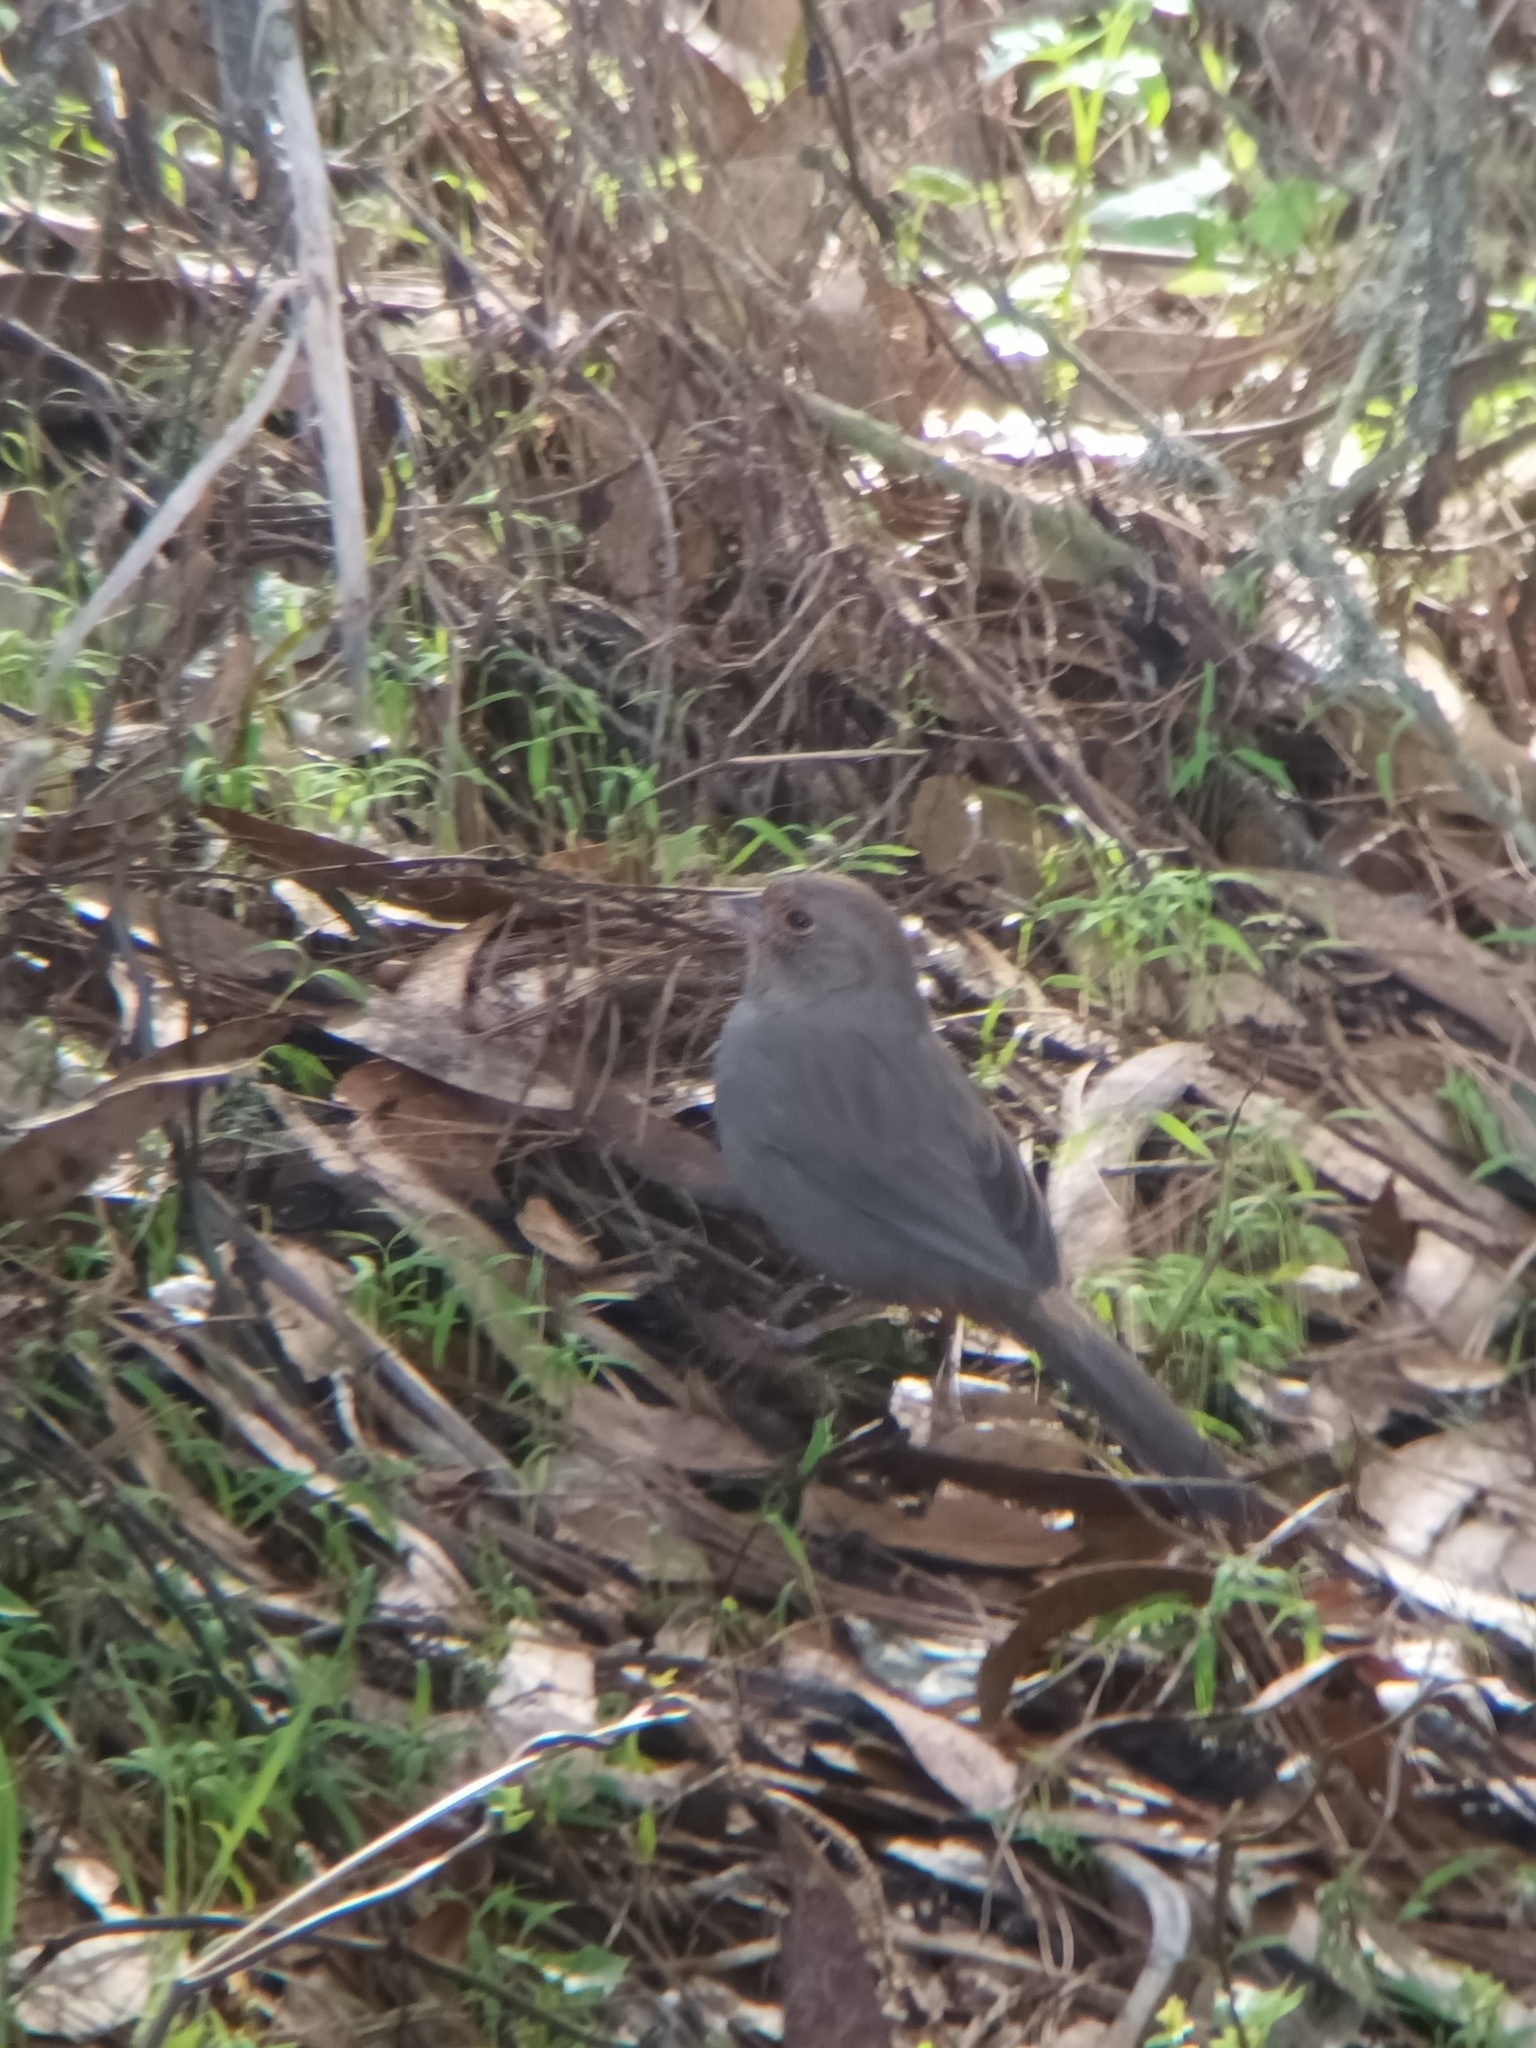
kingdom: Animalia
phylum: Chordata
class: Aves
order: Passeriformes
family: Passerellidae
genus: Melozone
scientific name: Melozone crissalis
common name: California towhee
